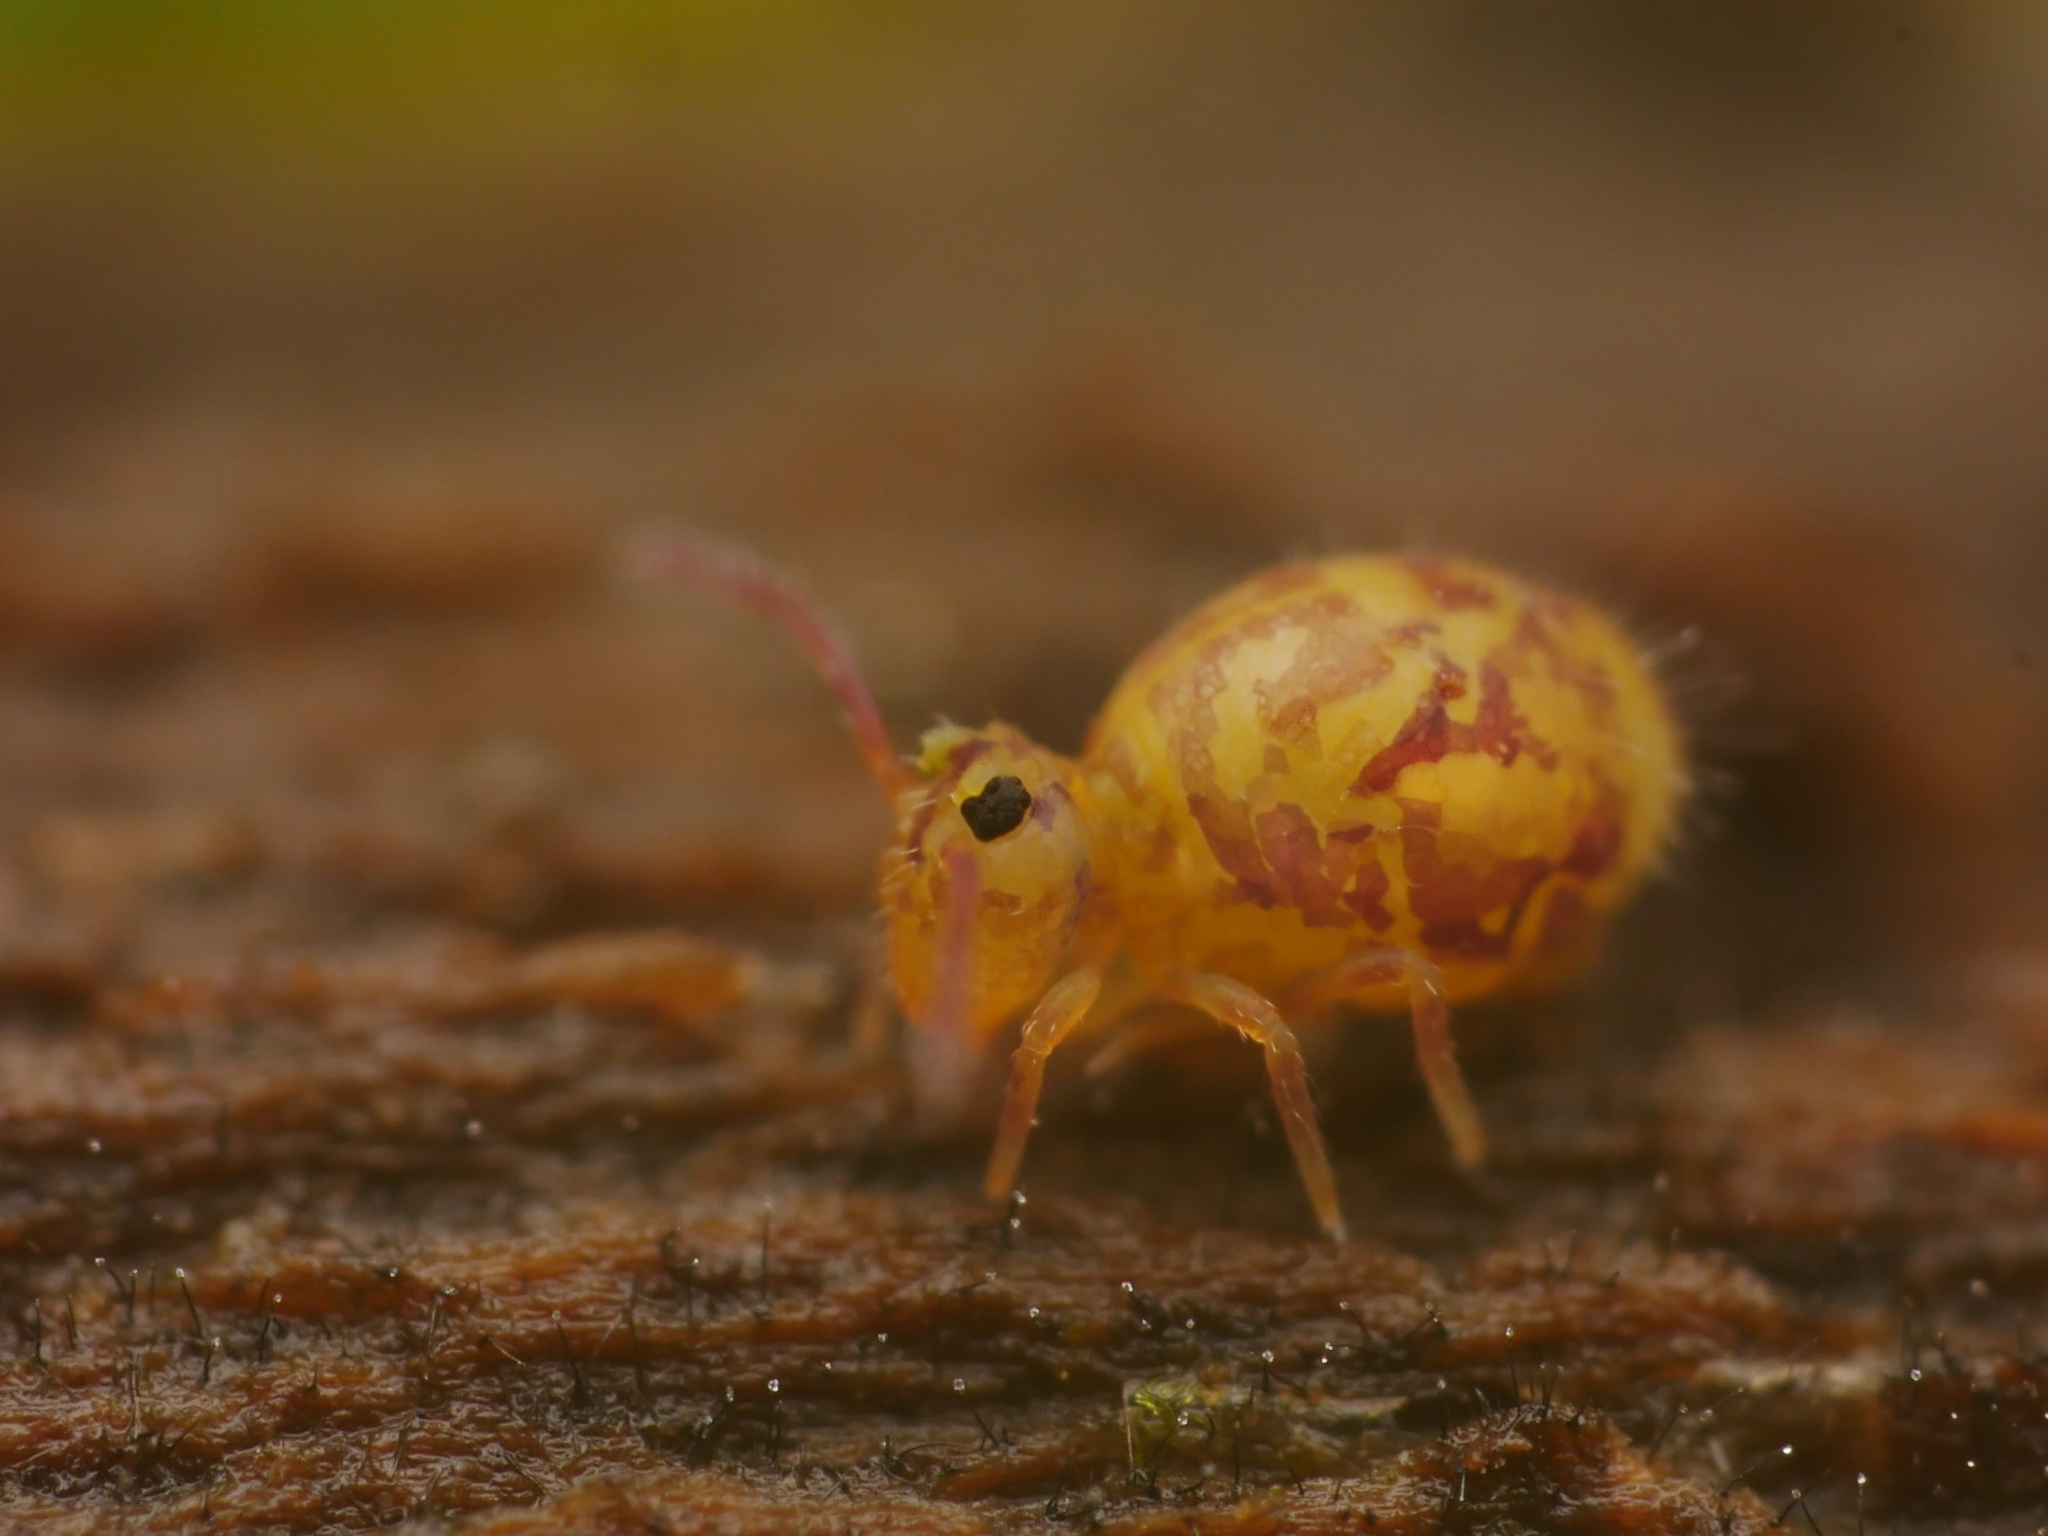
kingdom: Animalia
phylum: Arthropoda
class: Collembola
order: Symphypleona
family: Dicyrtomidae
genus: Dicyrtomina
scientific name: Dicyrtomina ornata
